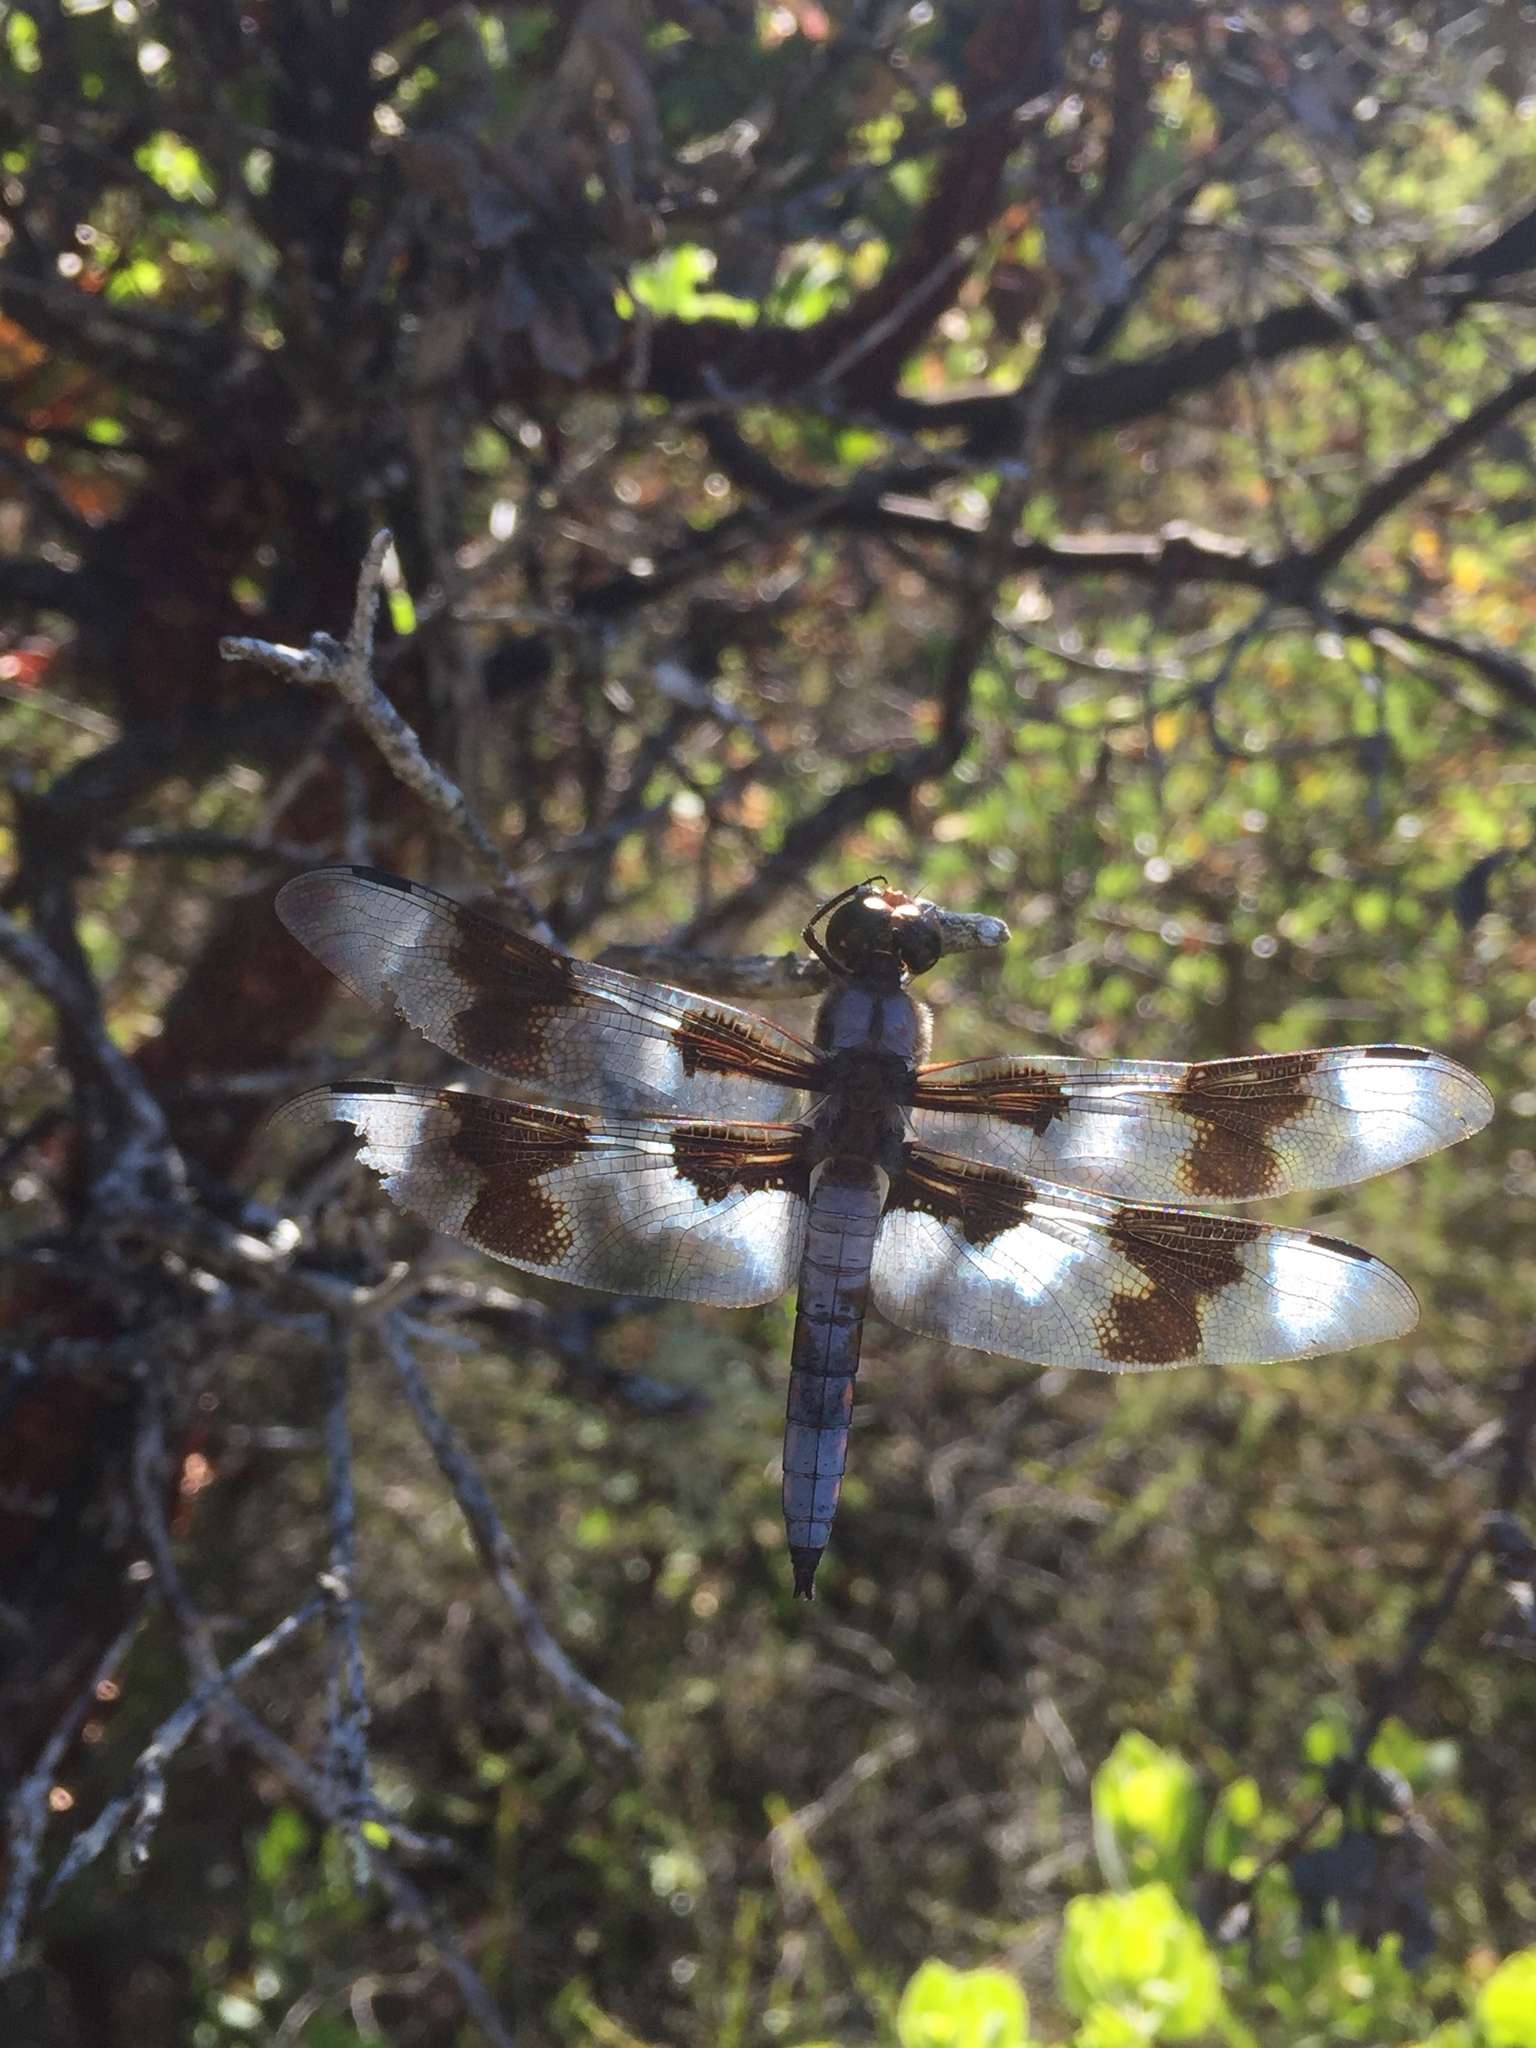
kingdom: Animalia
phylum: Arthropoda
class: Insecta
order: Odonata
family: Libellulidae
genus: Libellula
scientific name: Libellula forensis
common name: Eight-spotted skimmer
